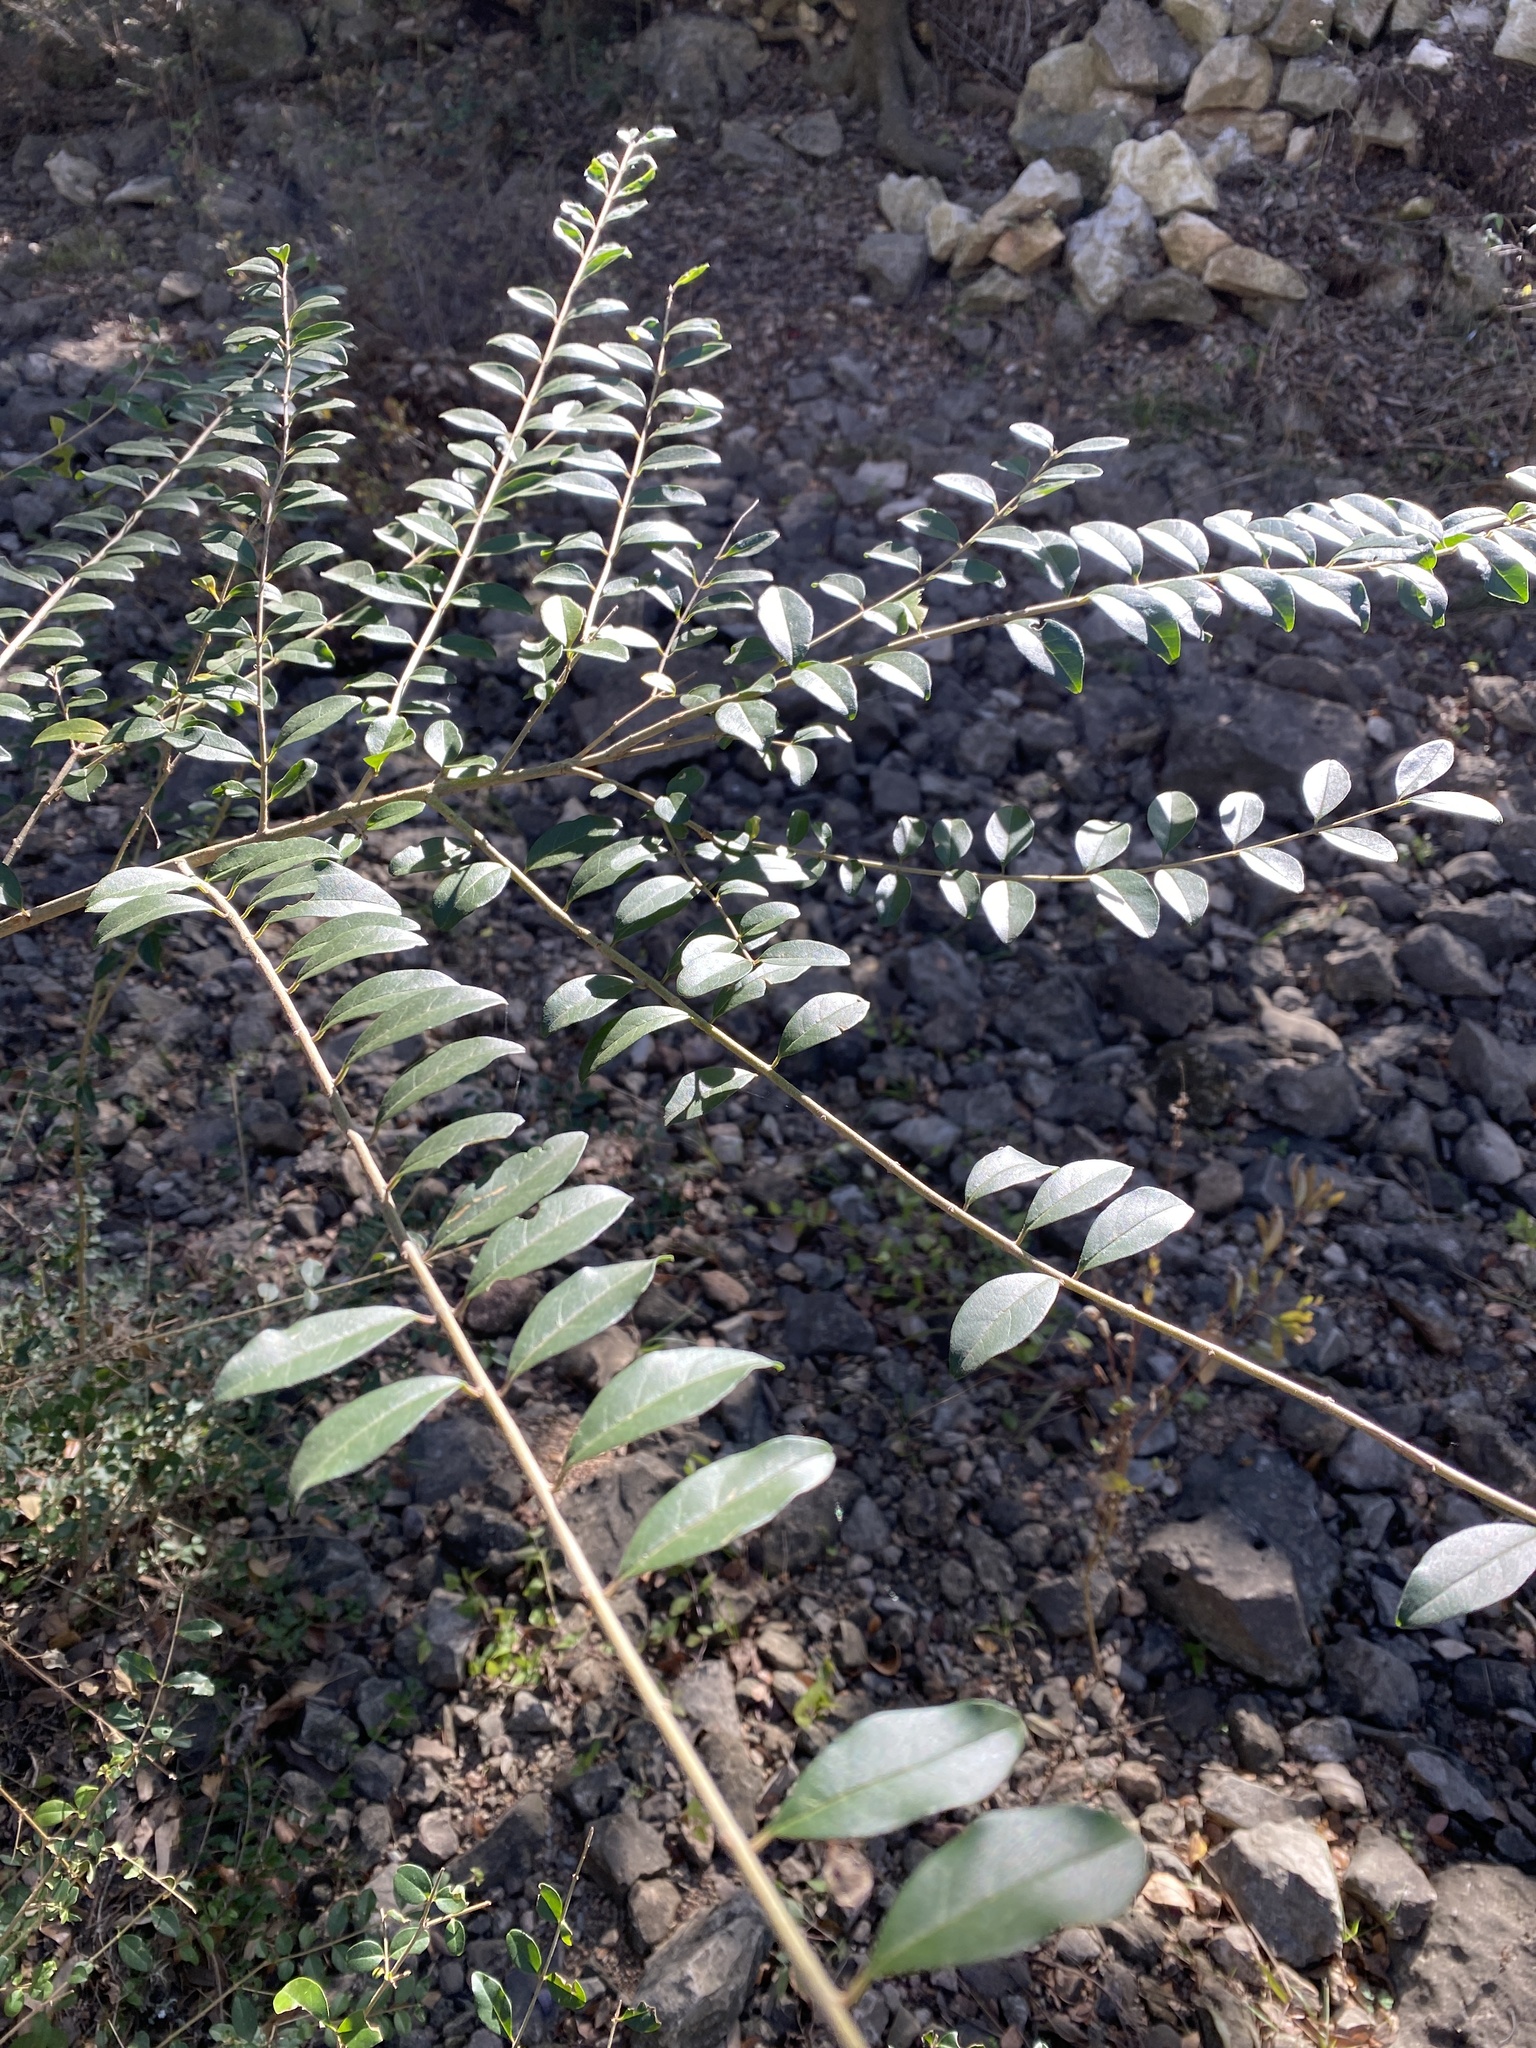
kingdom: Plantae
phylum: Tracheophyta
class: Magnoliopsida
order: Lamiales
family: Oleaceae
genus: Ligustrum
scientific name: Ligustrum sinense
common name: Chinese privet
